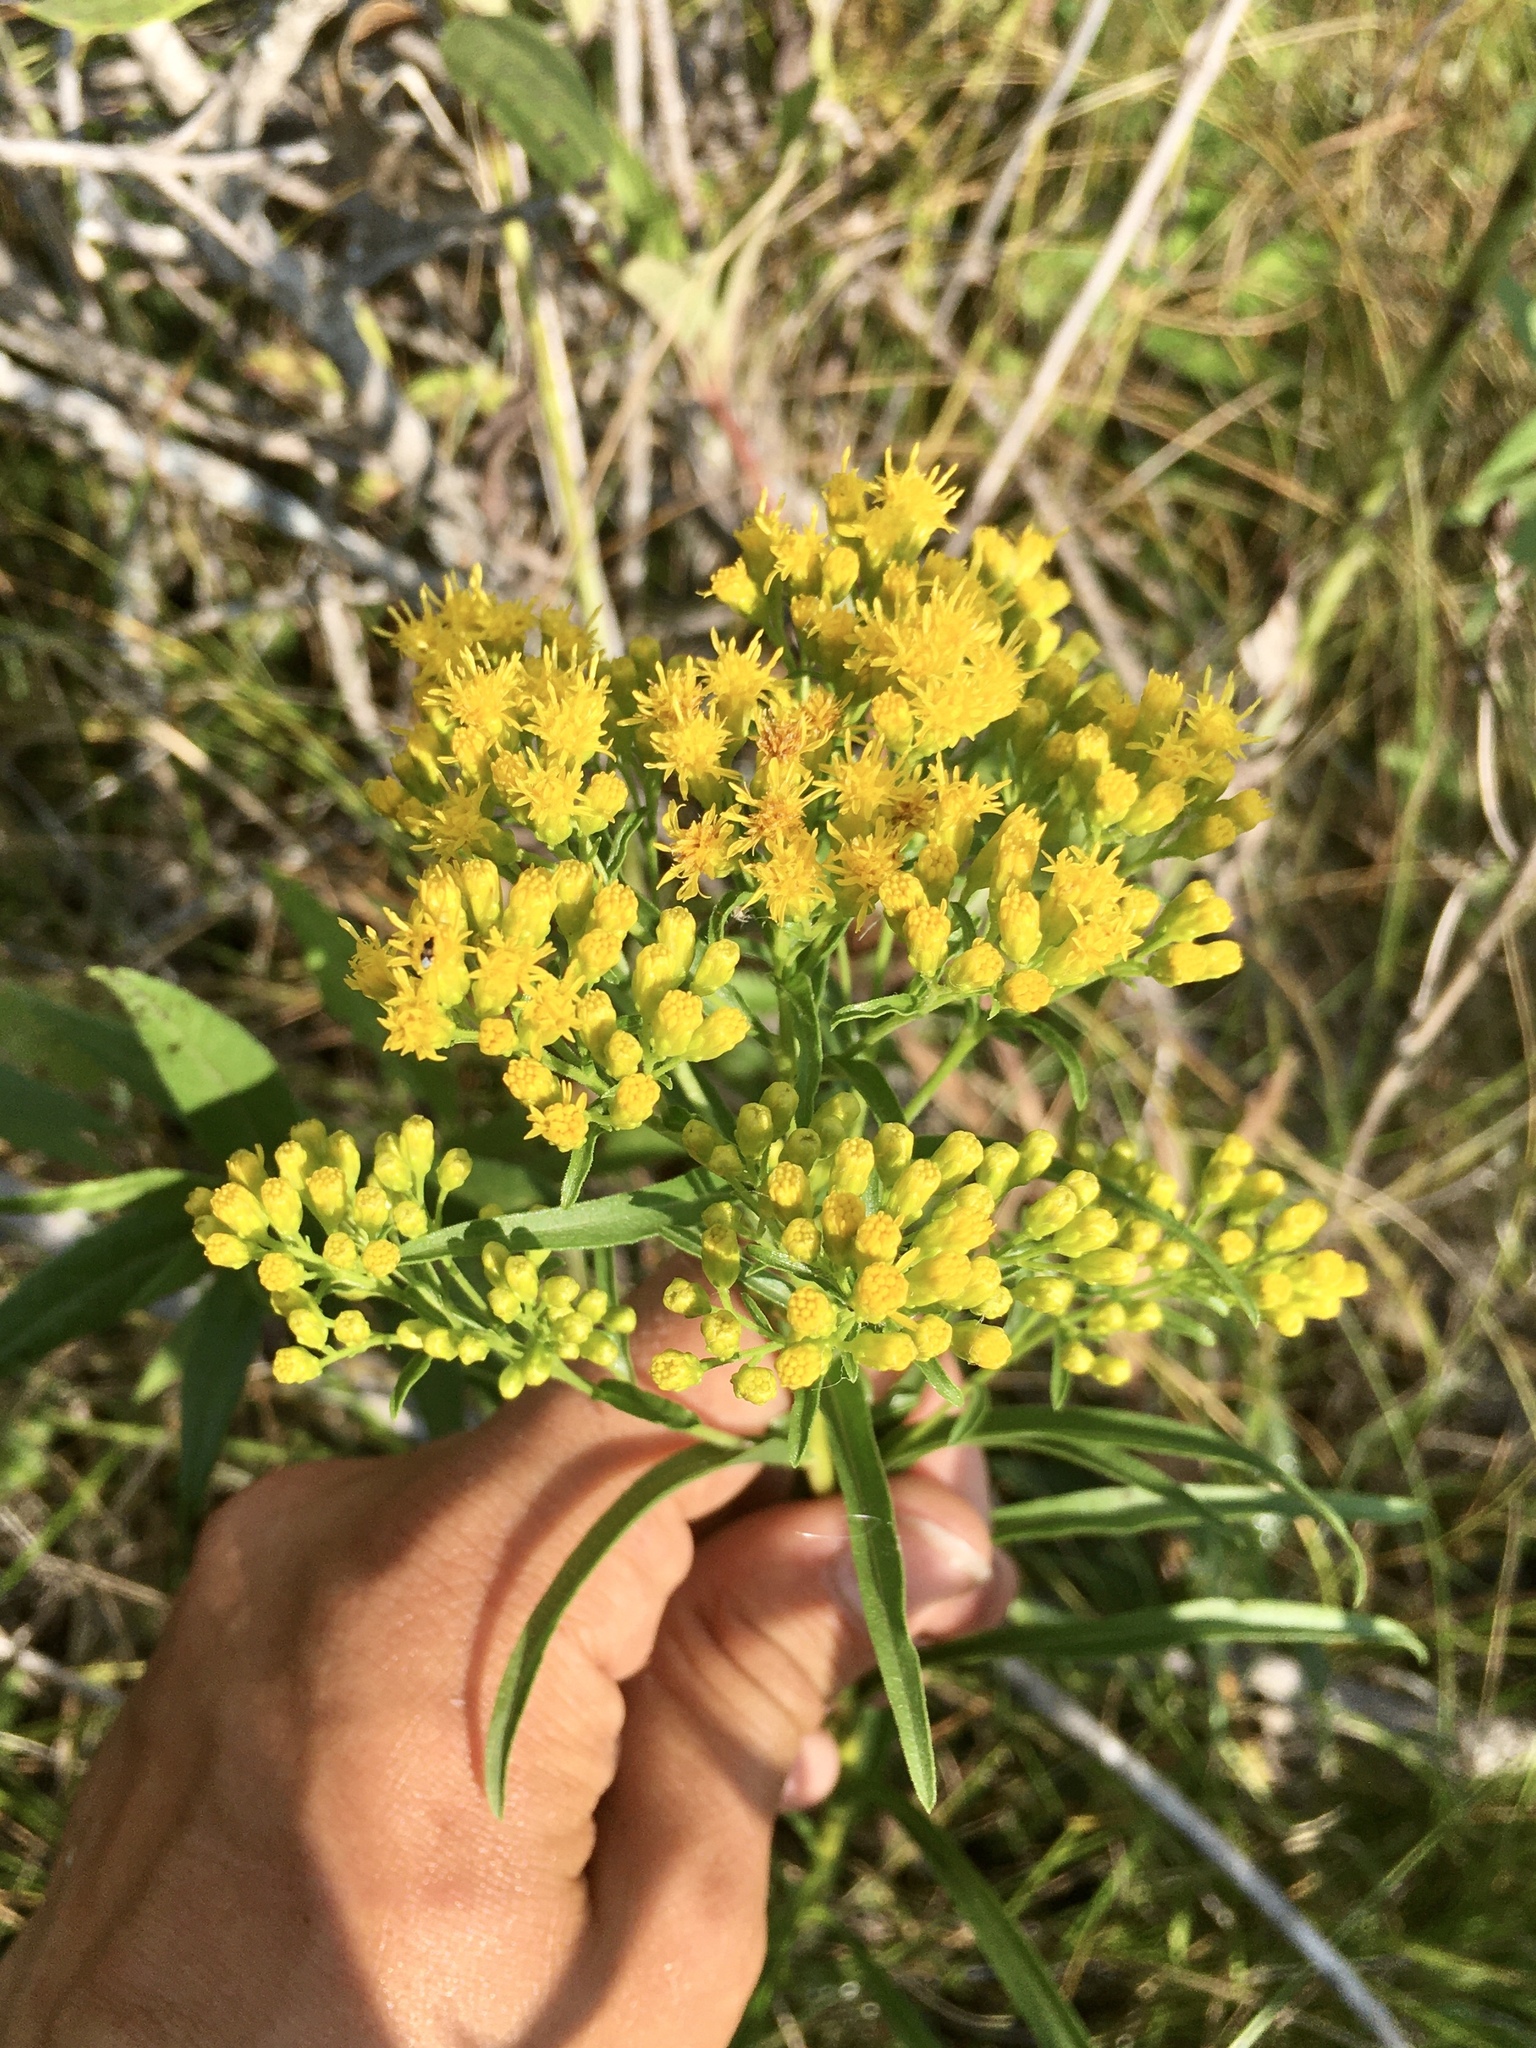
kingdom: Plantae
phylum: Tracheophyta
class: Magnoliopsida
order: Asterales
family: Asteraceae
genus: Solidago
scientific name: Solidago riddellii
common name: Riddell's goldenrod
